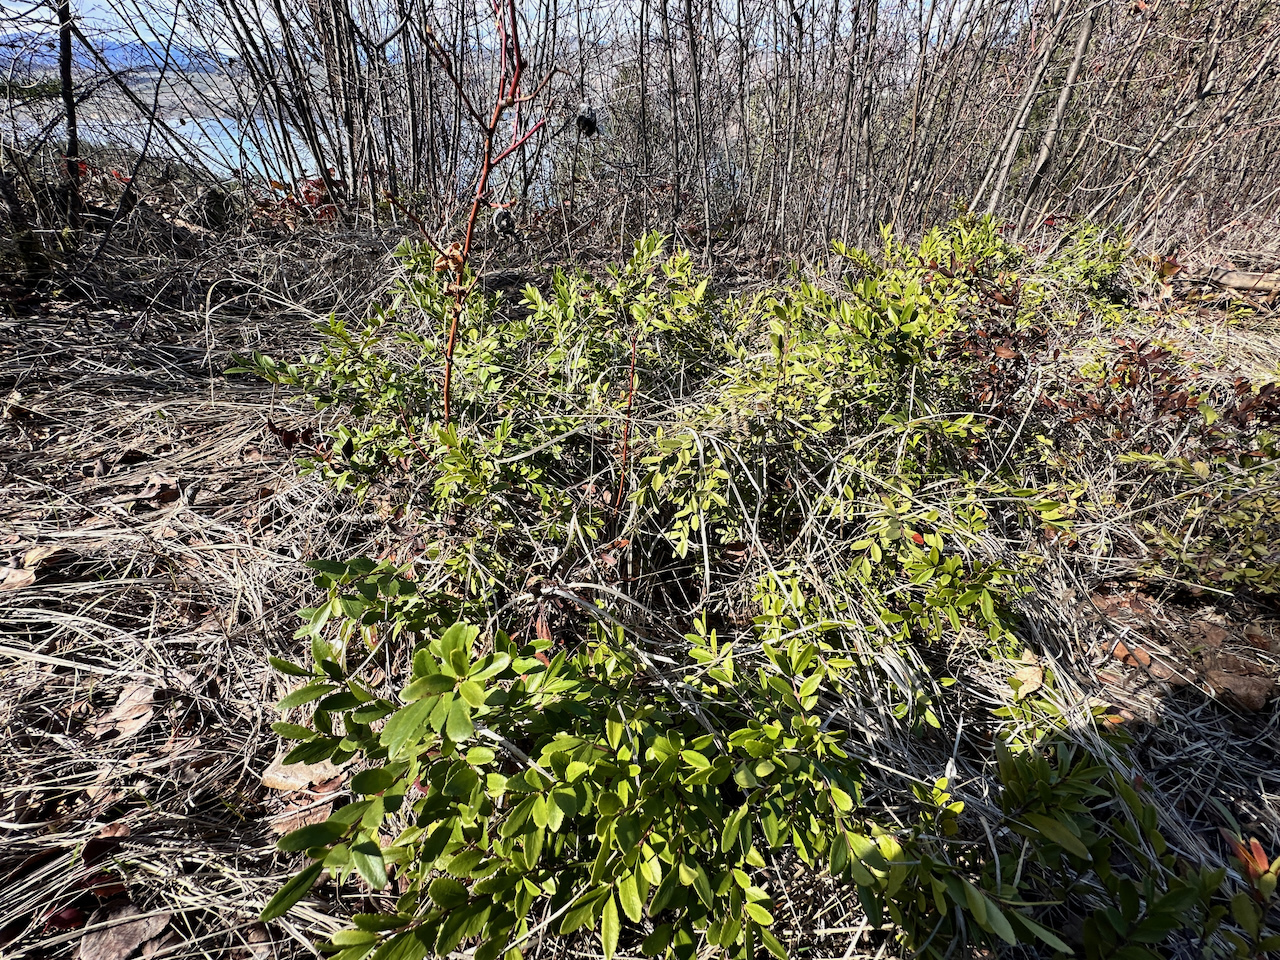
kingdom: Plantae
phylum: Tracheophyta
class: Magnoliopsida
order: Celastrales
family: Celastraceae
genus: Paxistima
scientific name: Paxistima myrsinites
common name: Mountain-lover
